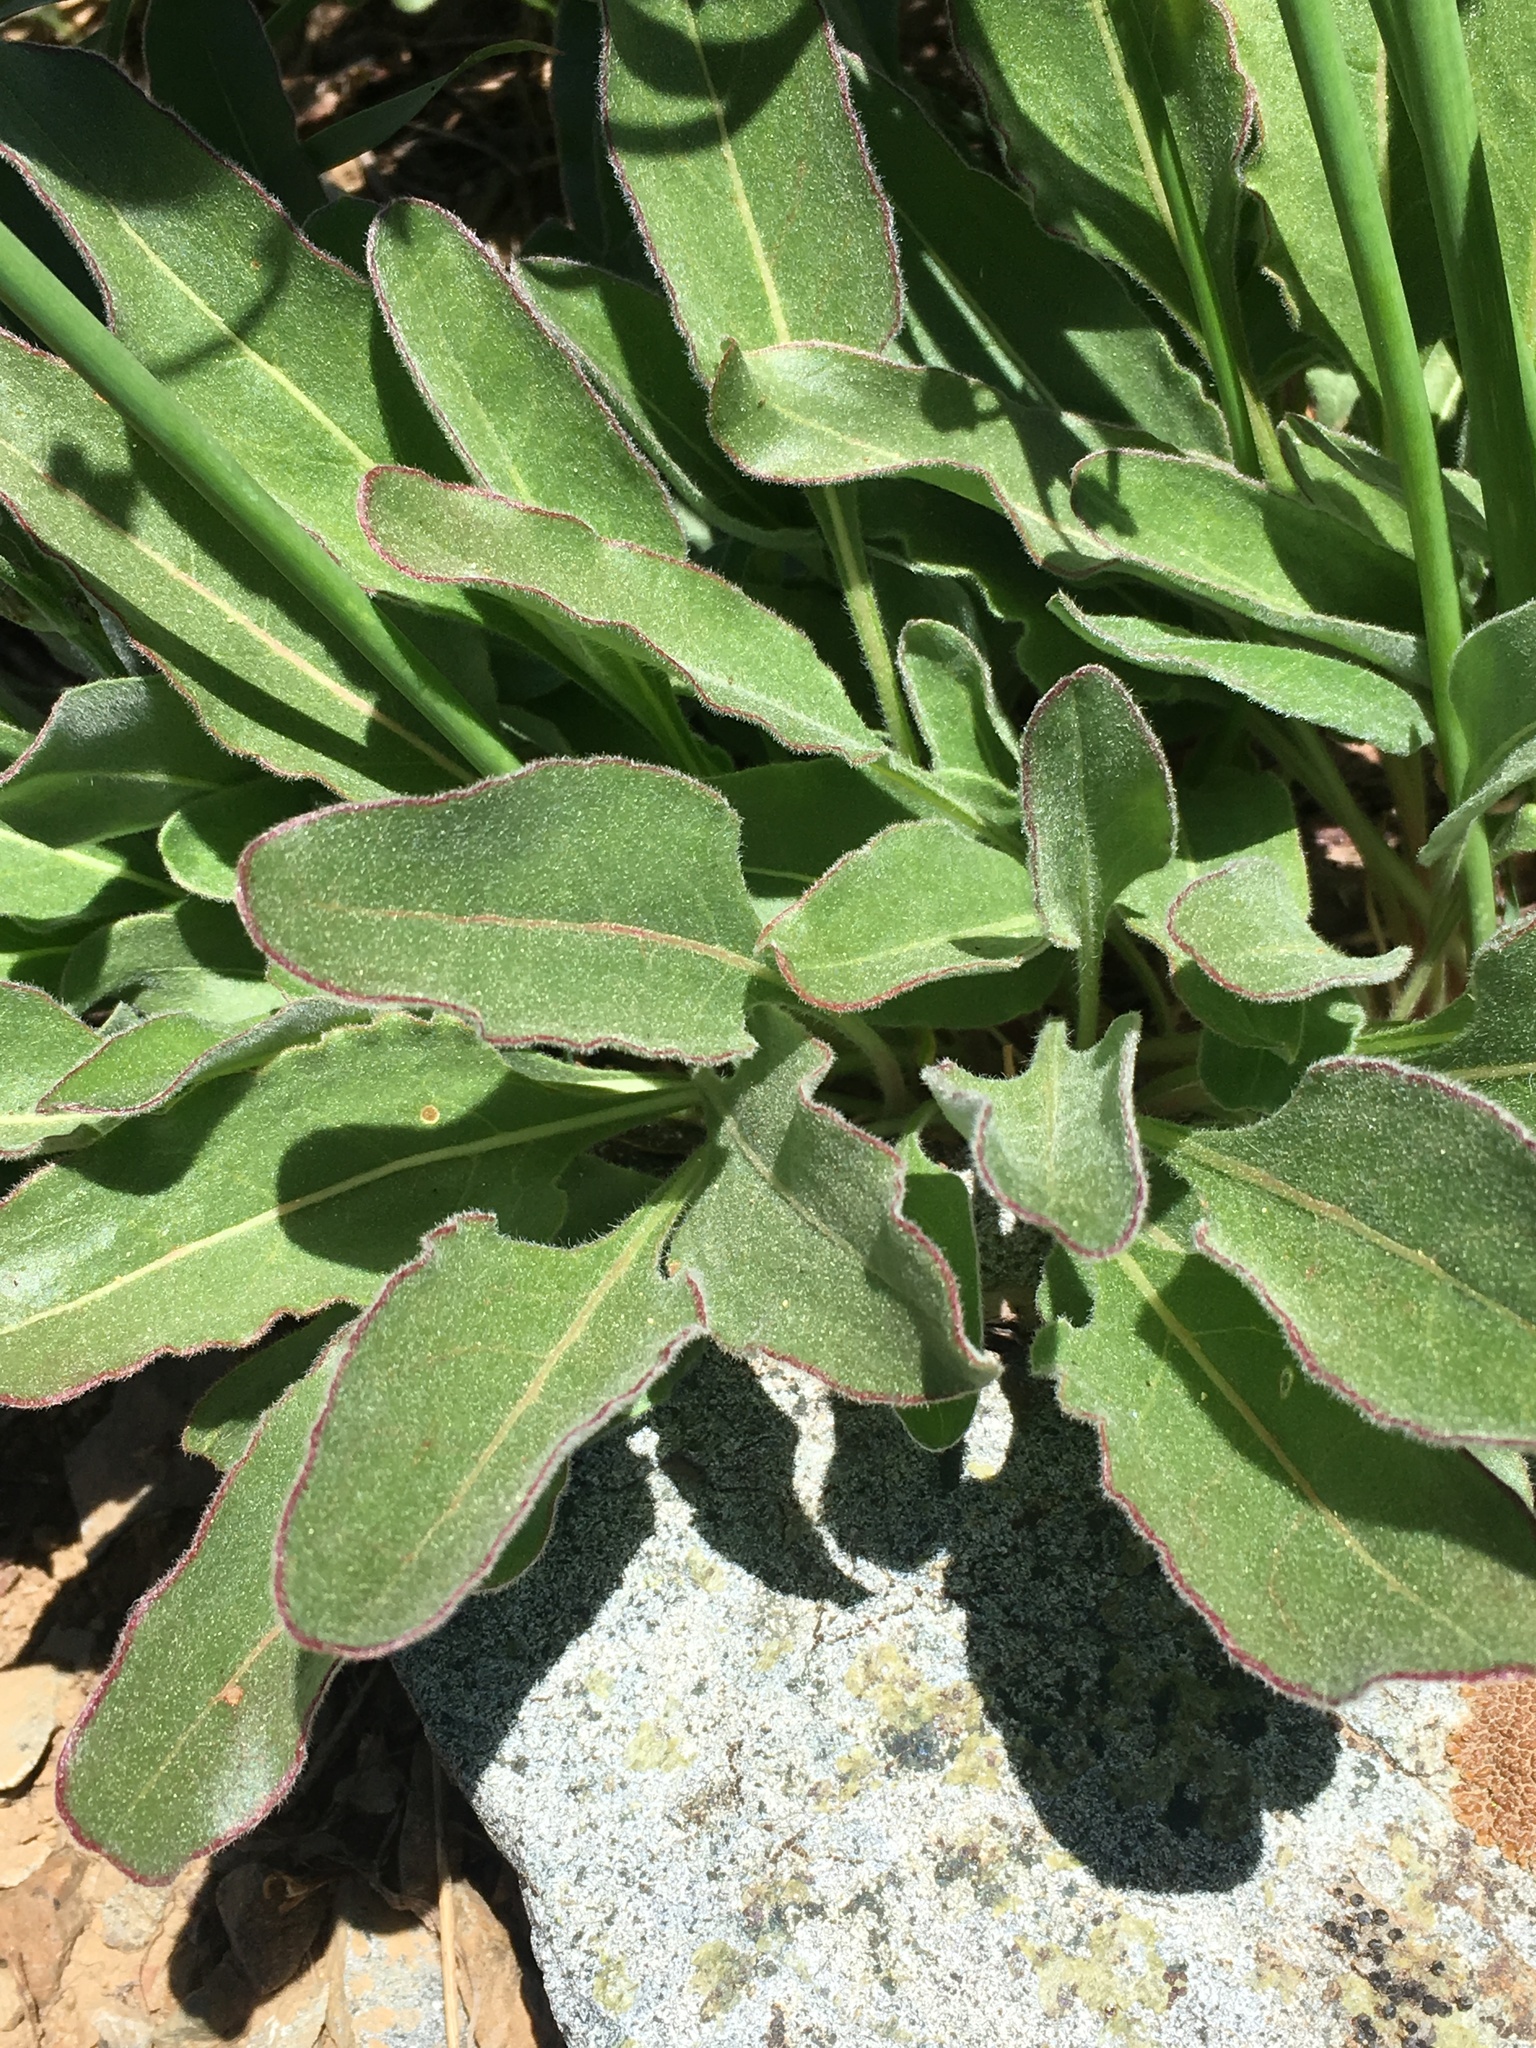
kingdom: Plantae
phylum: Tracheophyta
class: Magnoliopsida
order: Caryophyllales
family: Polygonaceae
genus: Eriogonum
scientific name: Eriogonum elatum
